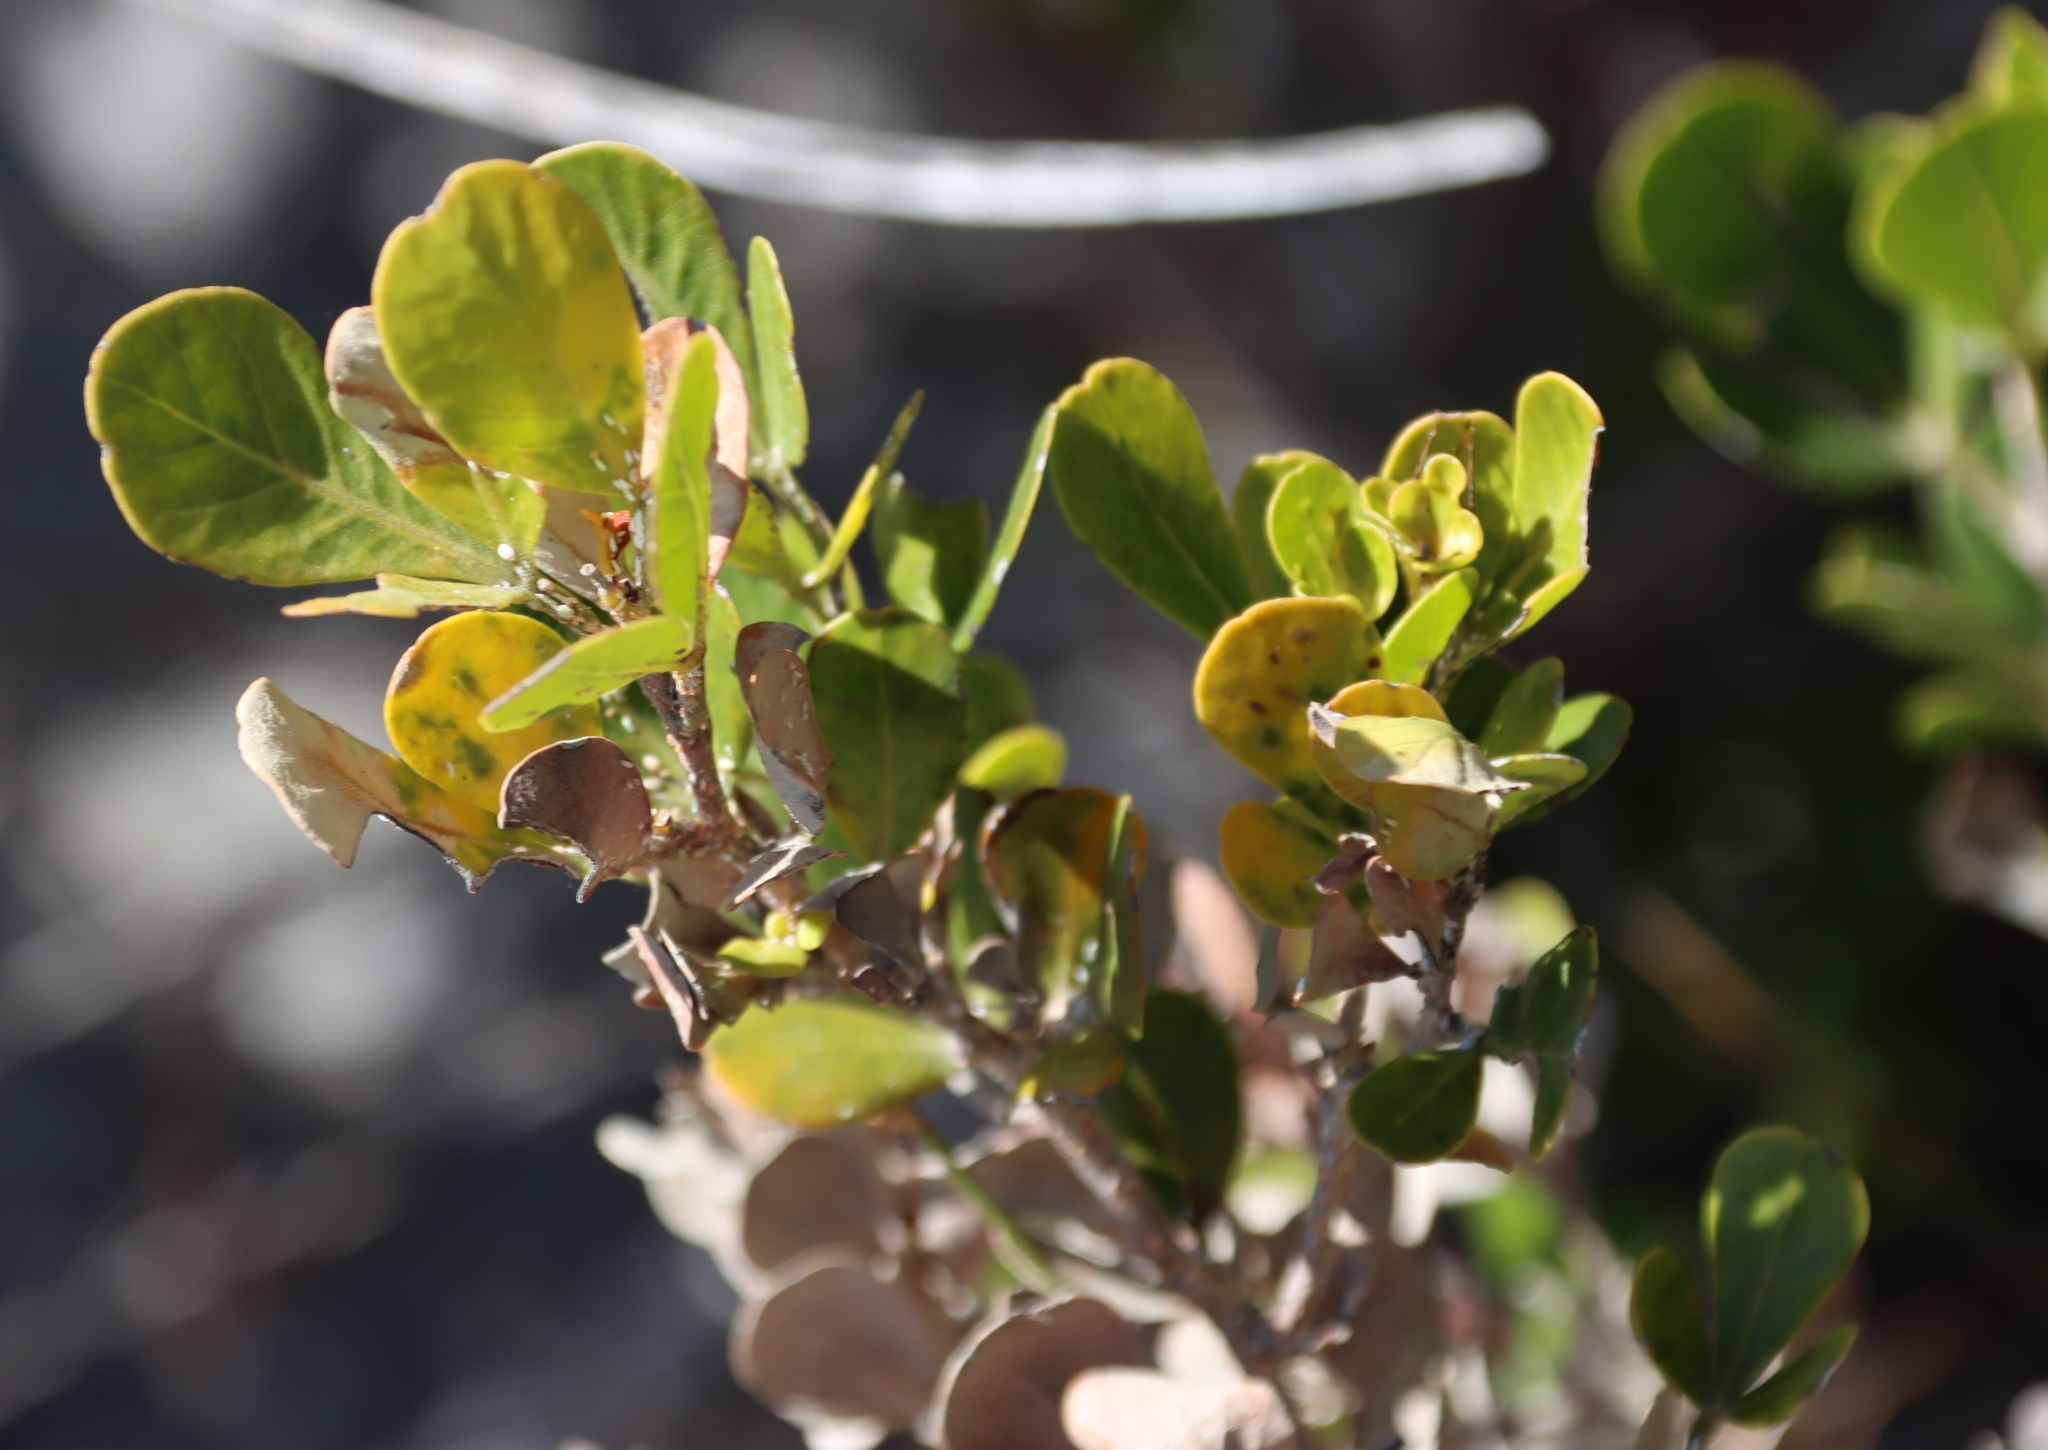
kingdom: Plantae
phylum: Tracheophyta
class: Magnoliopsida
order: Sapindales
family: Anacardiaceae
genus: Searsia
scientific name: Searsia lucida
